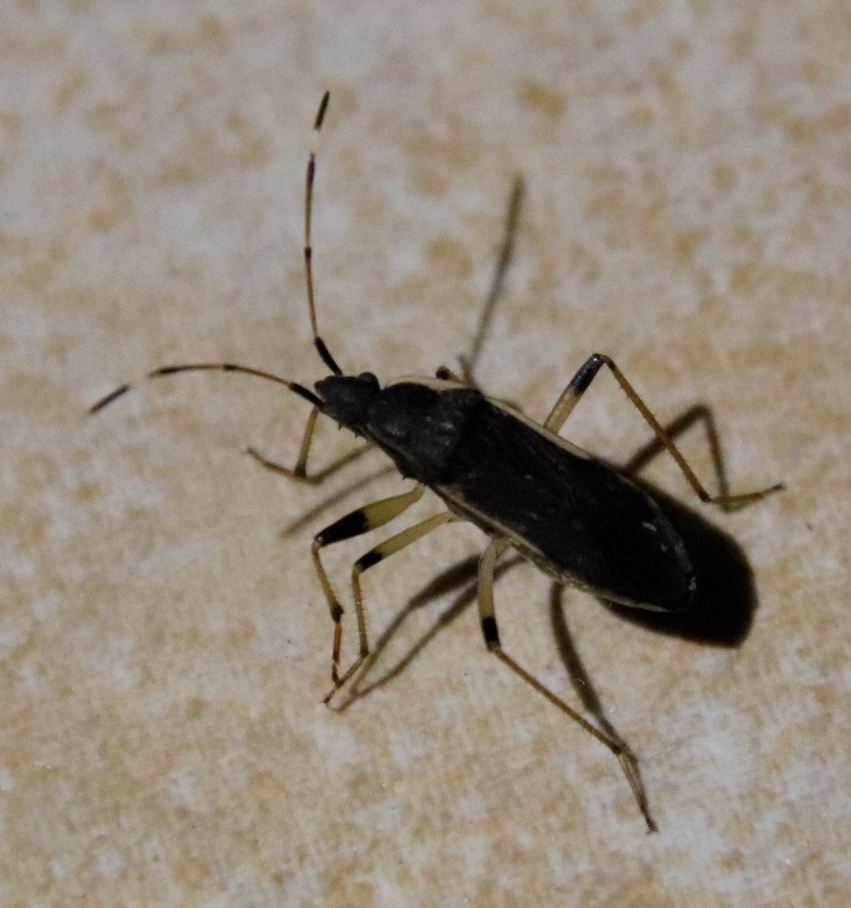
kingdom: Animalia
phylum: Arthropoda
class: Insecta
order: Hemiptera
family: Rhyparochromidae
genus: Dieuches
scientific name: Dieuches africanus
